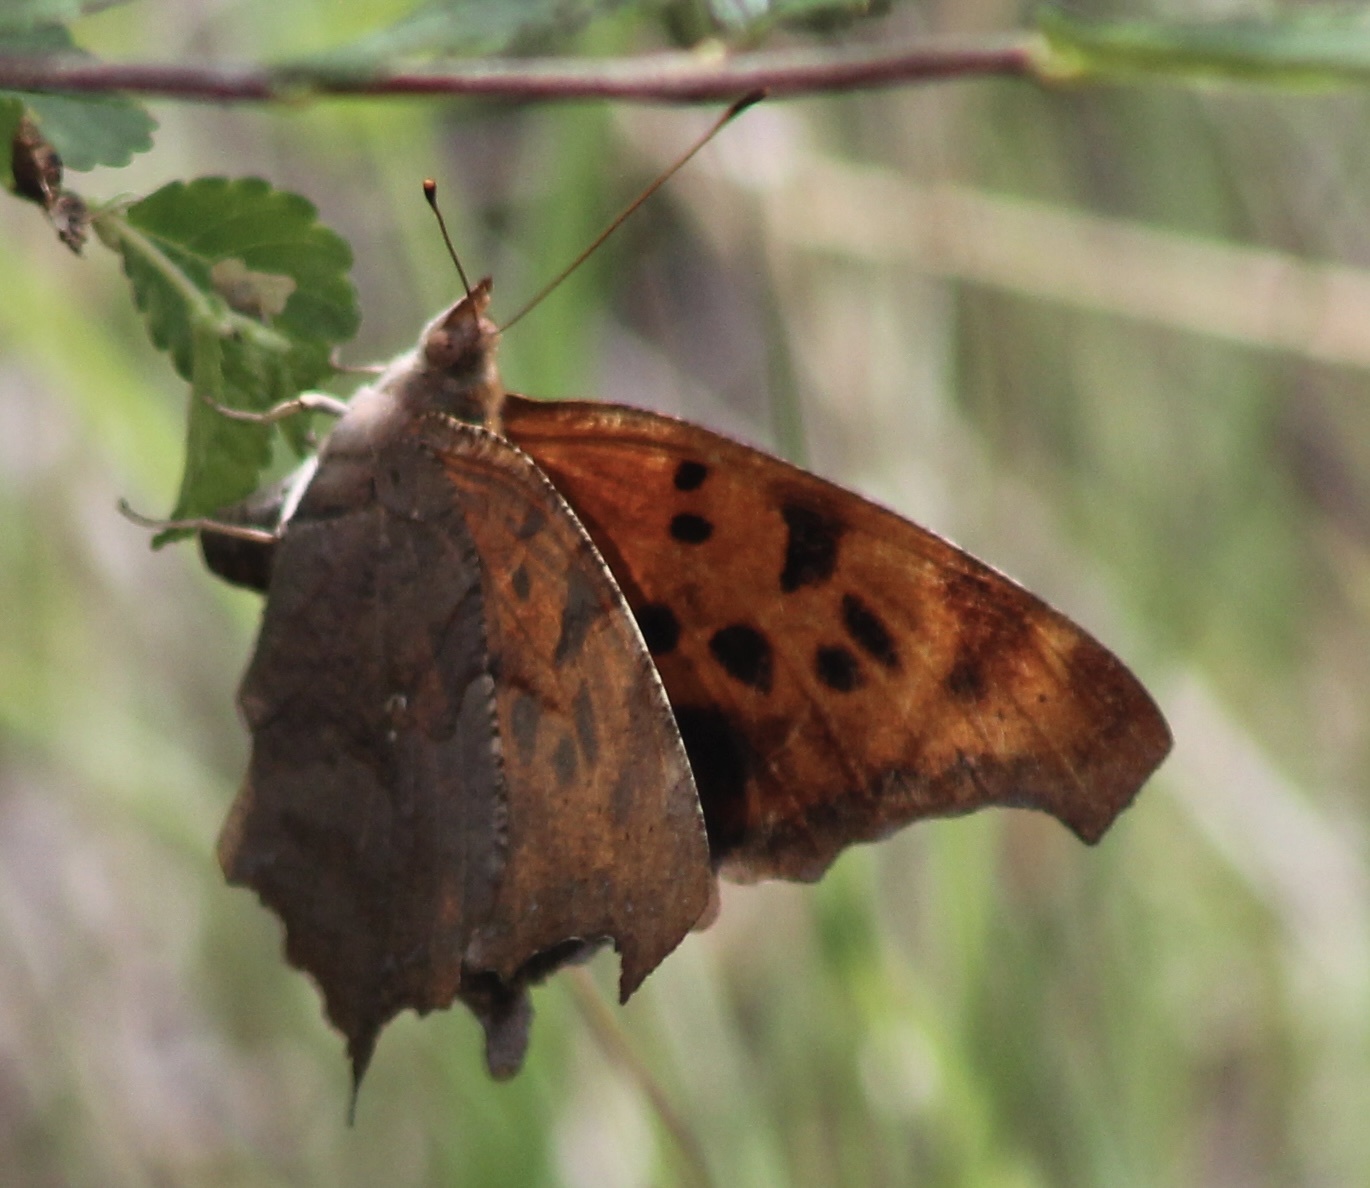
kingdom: Animalia
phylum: Arthropoda
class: Insecta
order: Lepidoptera
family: Nymphalidae
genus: Polygonia
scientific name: Polygonia interrogationis
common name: Question mark
